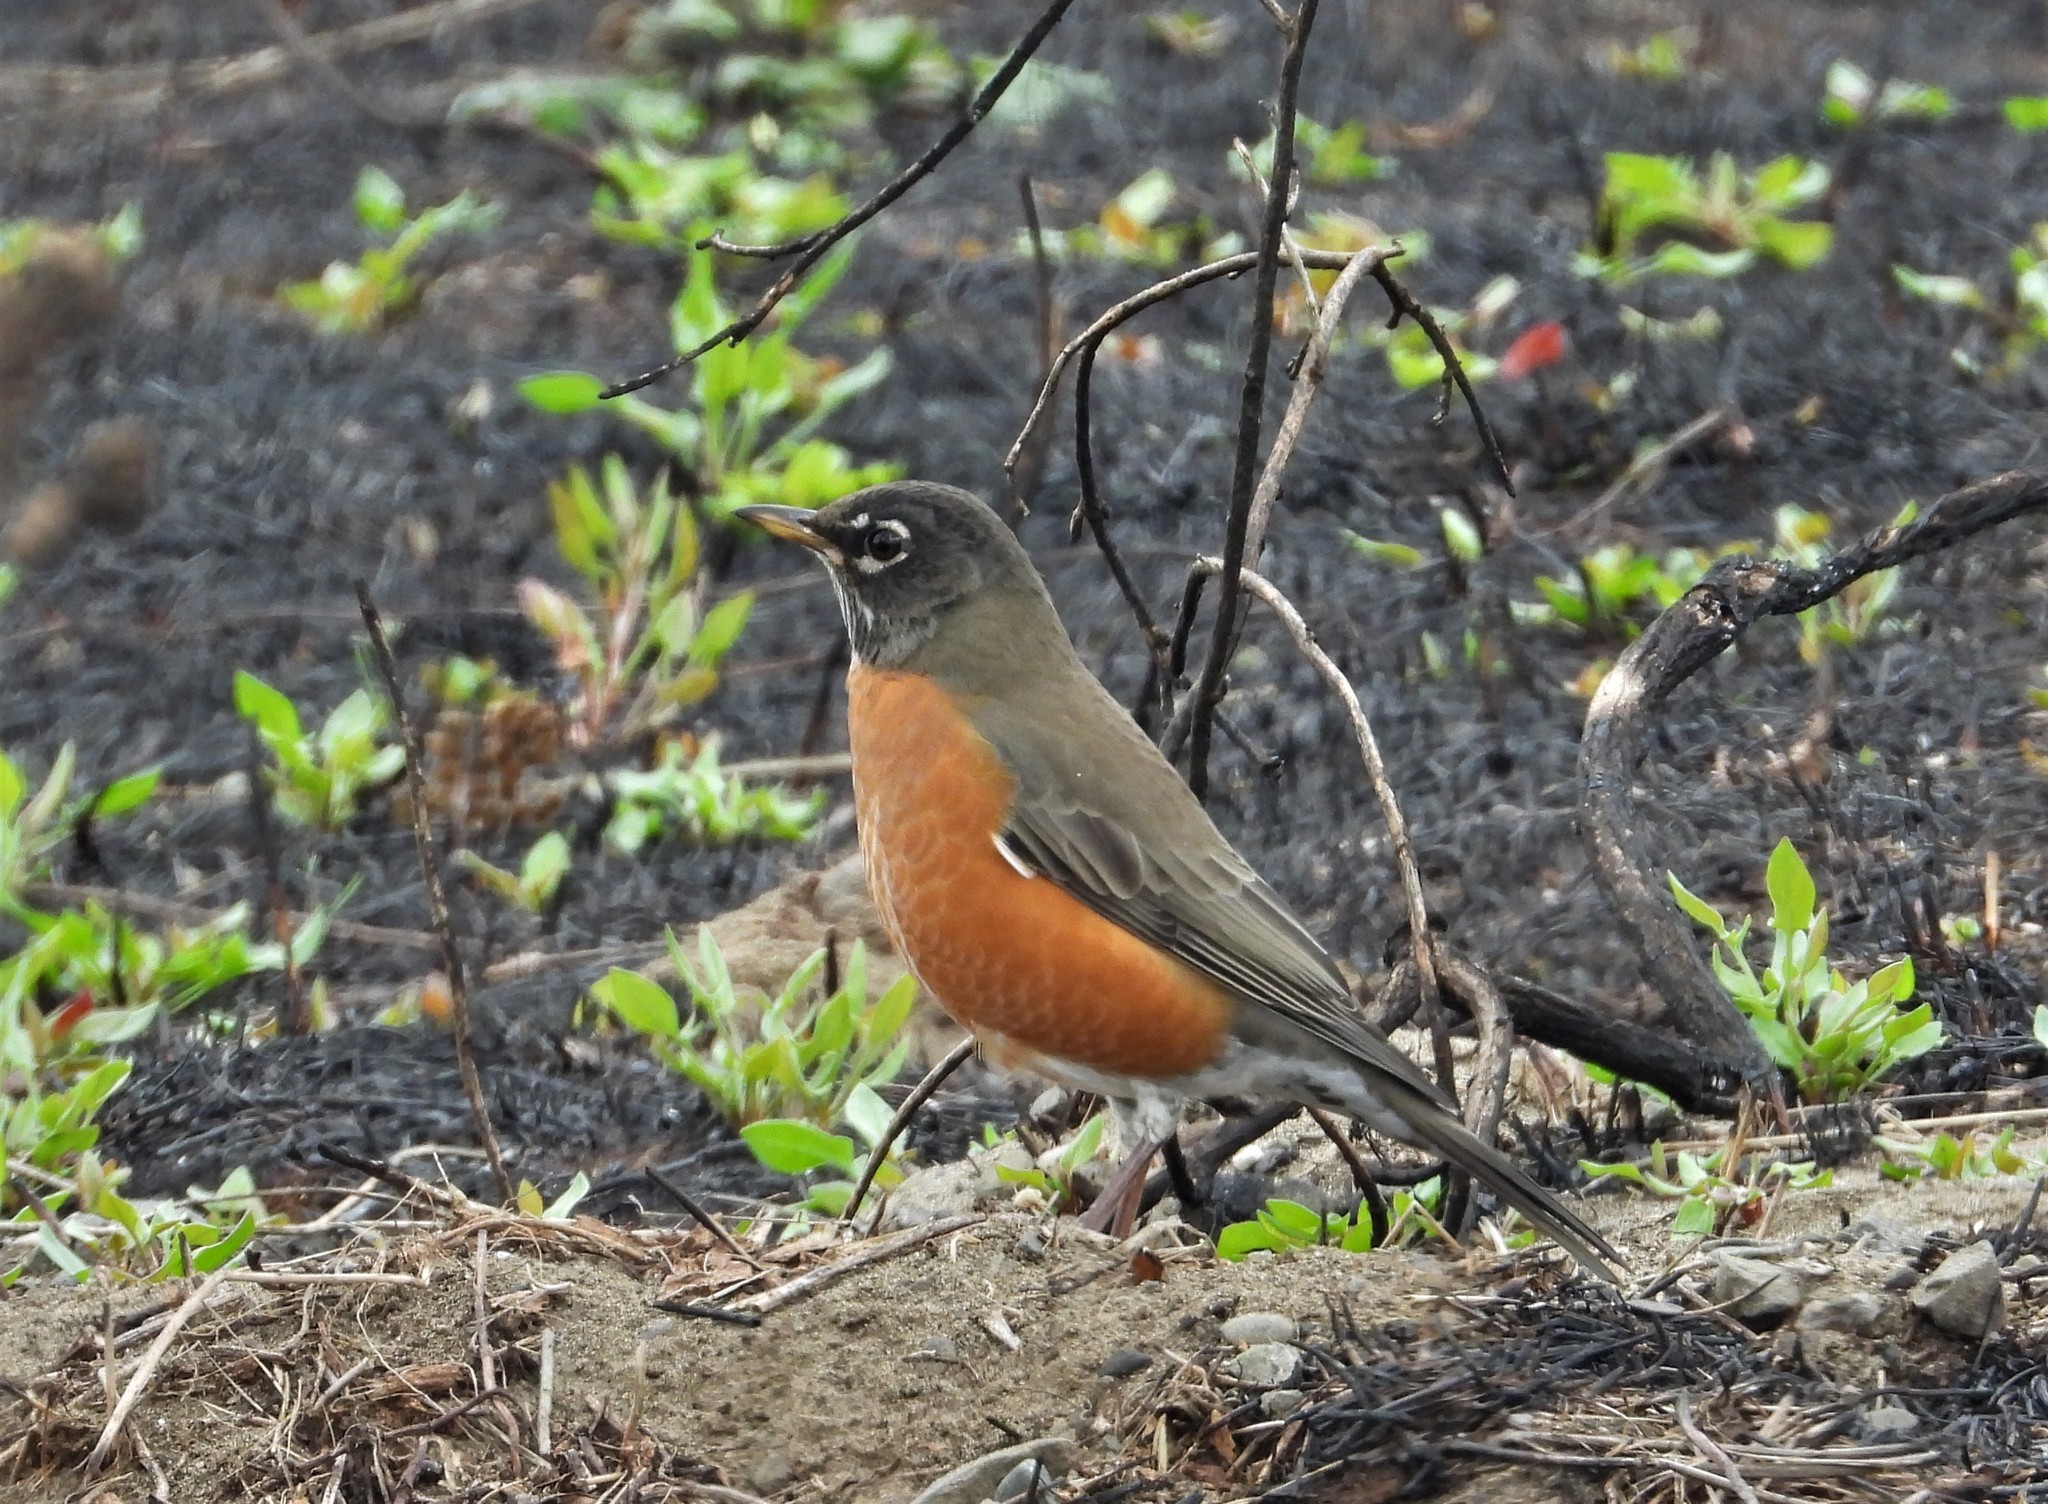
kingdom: Animalia
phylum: Chordata
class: Aves
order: Passeriformes
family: Turdidae
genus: Turdus
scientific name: Turdus migratorius
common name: American robin
